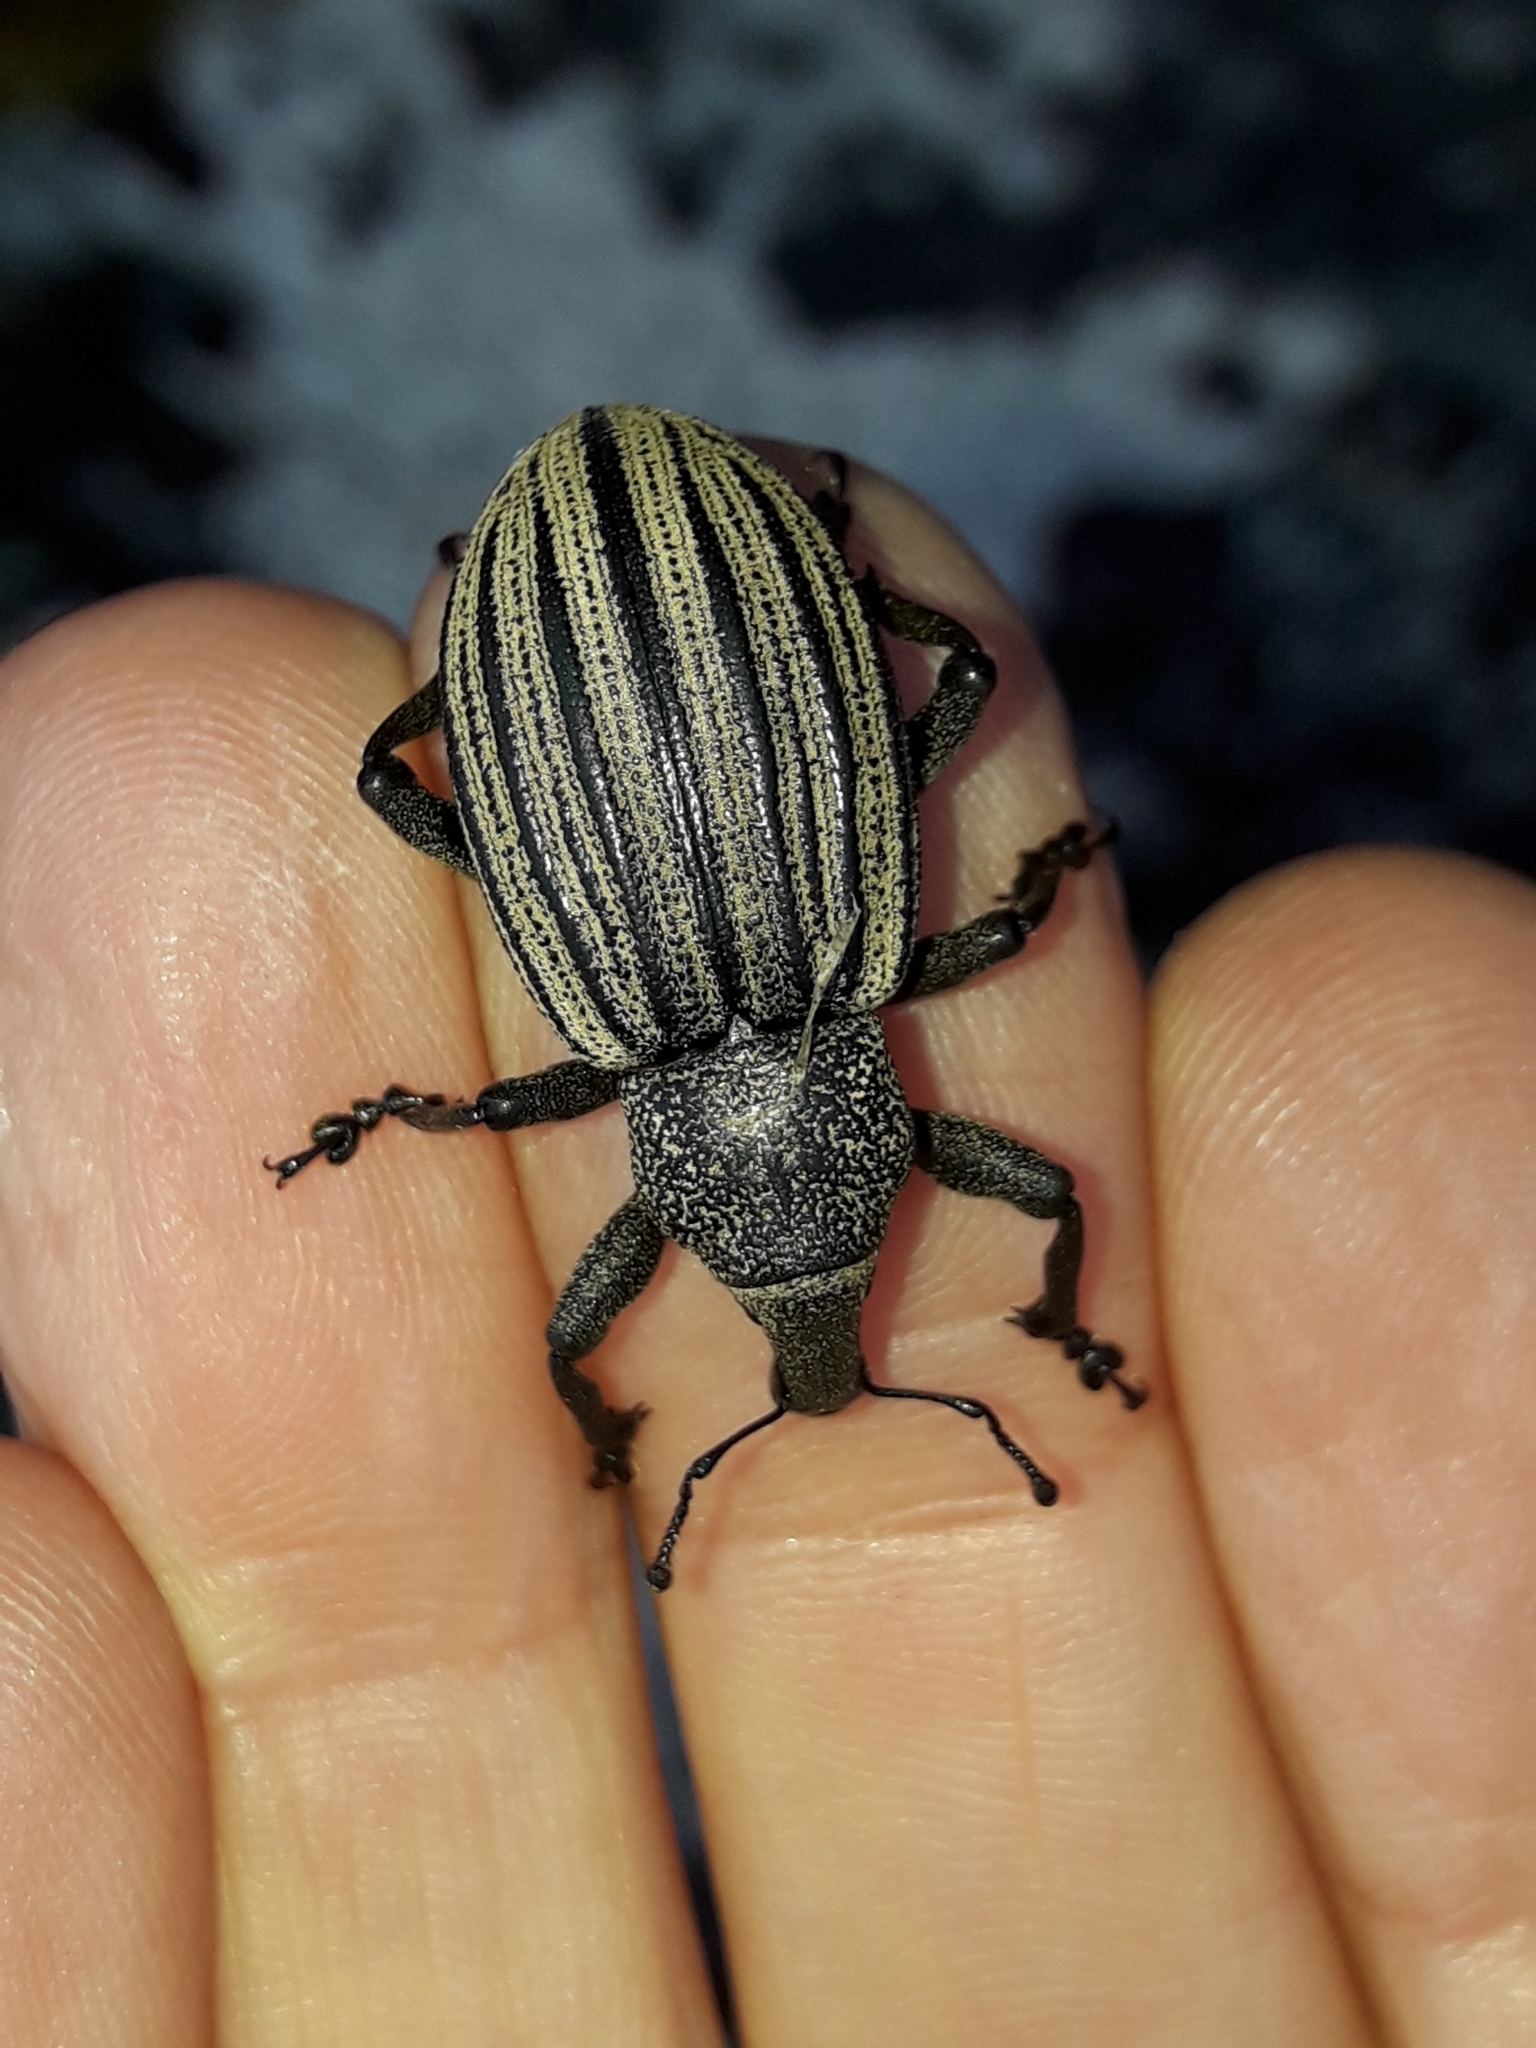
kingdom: Animalia
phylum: Arthropoda
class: Insecta
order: Coleoptera
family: Curculionidae
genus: Lyperobius
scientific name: Lyperobius spedeni
